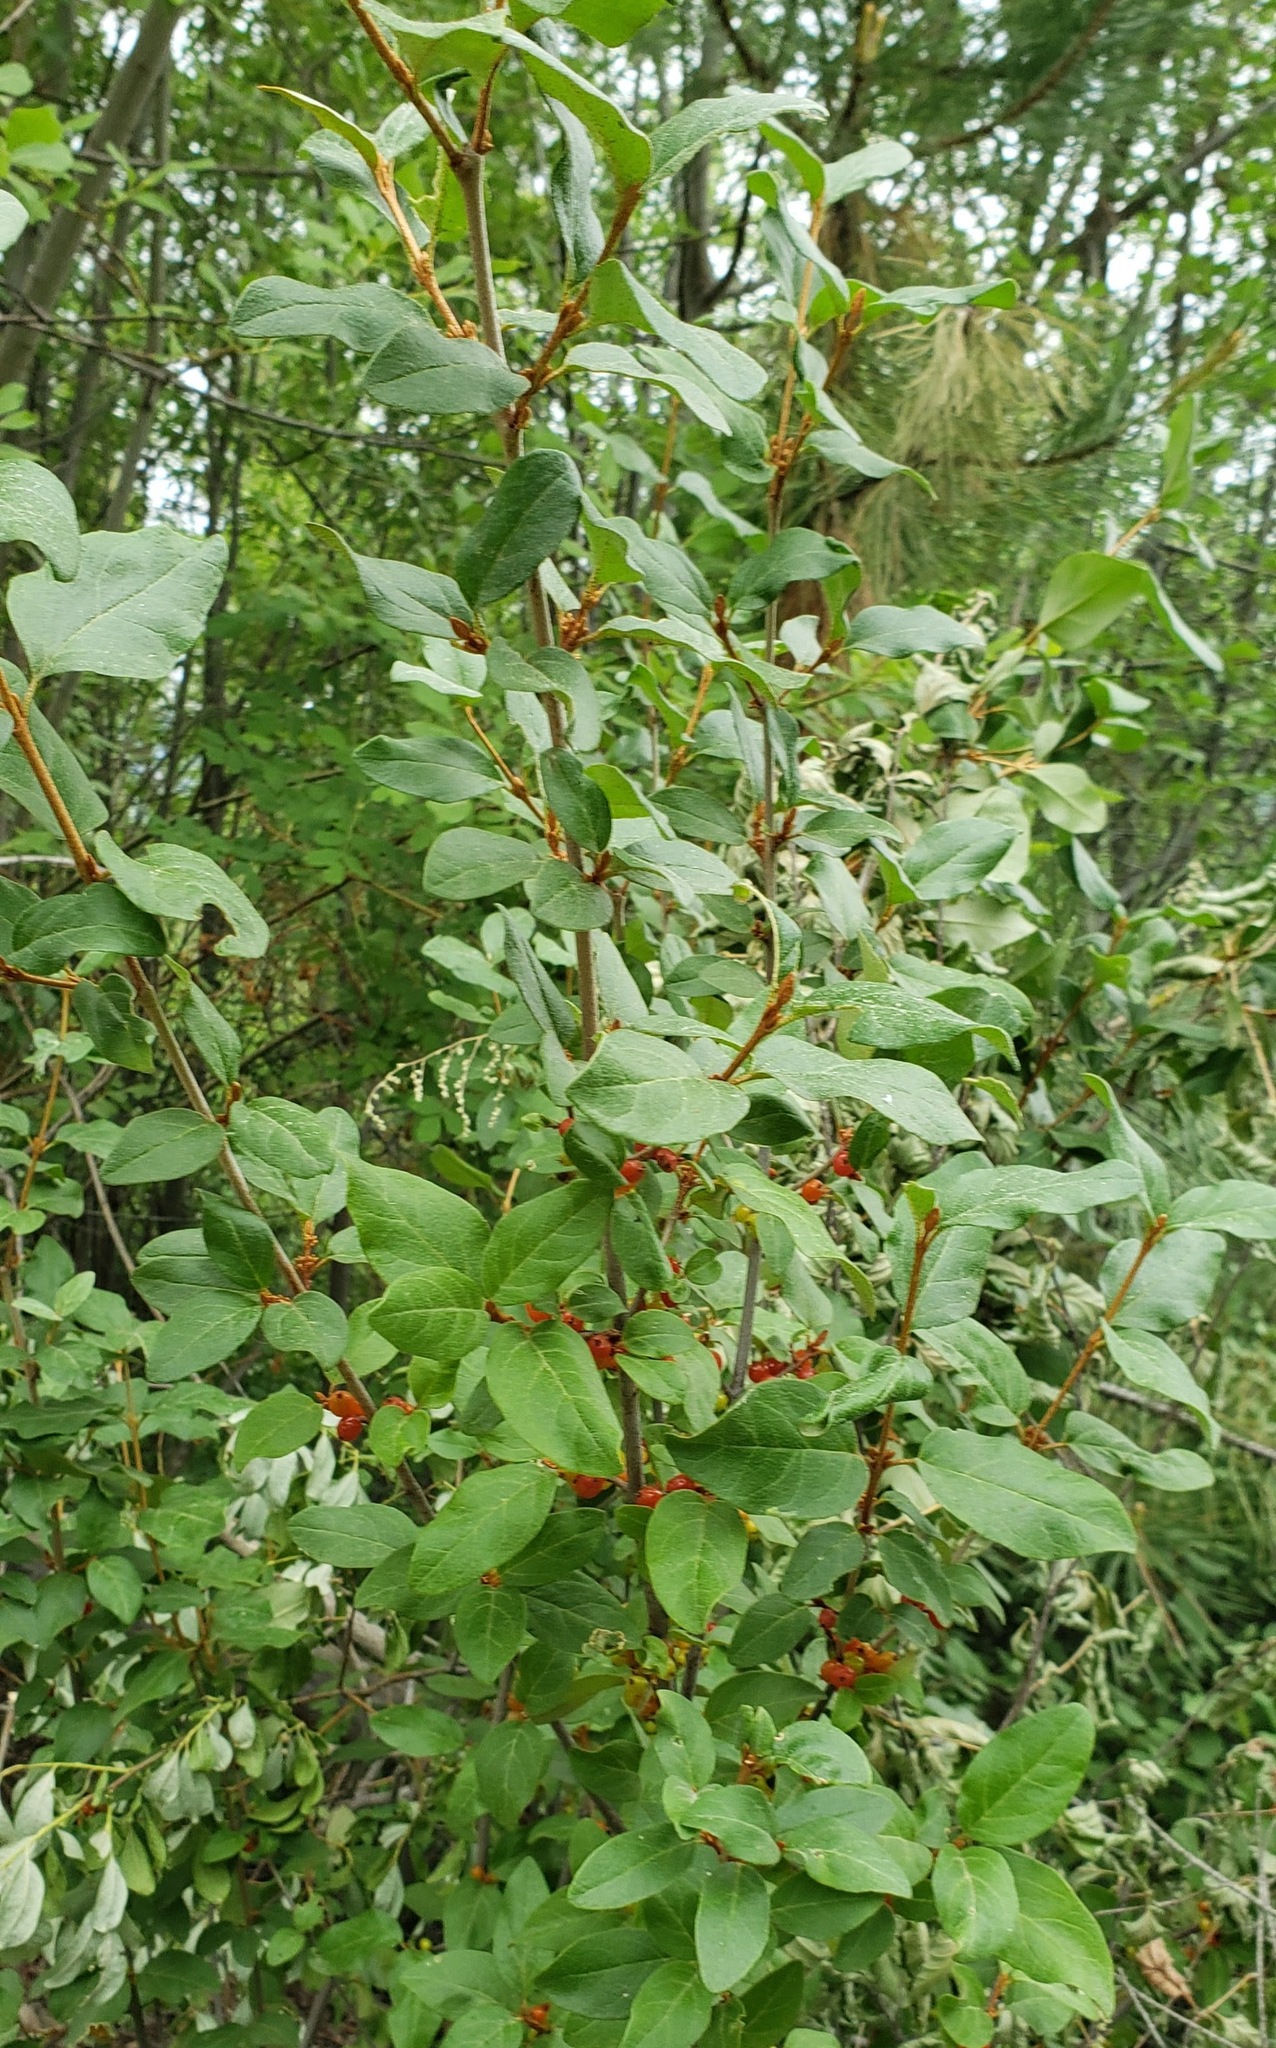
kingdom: Plantae
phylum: Tracheophyta
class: Magnoliopsida
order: Rosales
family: Elaeagnaceae
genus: Shepherdia
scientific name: Shepherdia canadensis
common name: Soapberry
